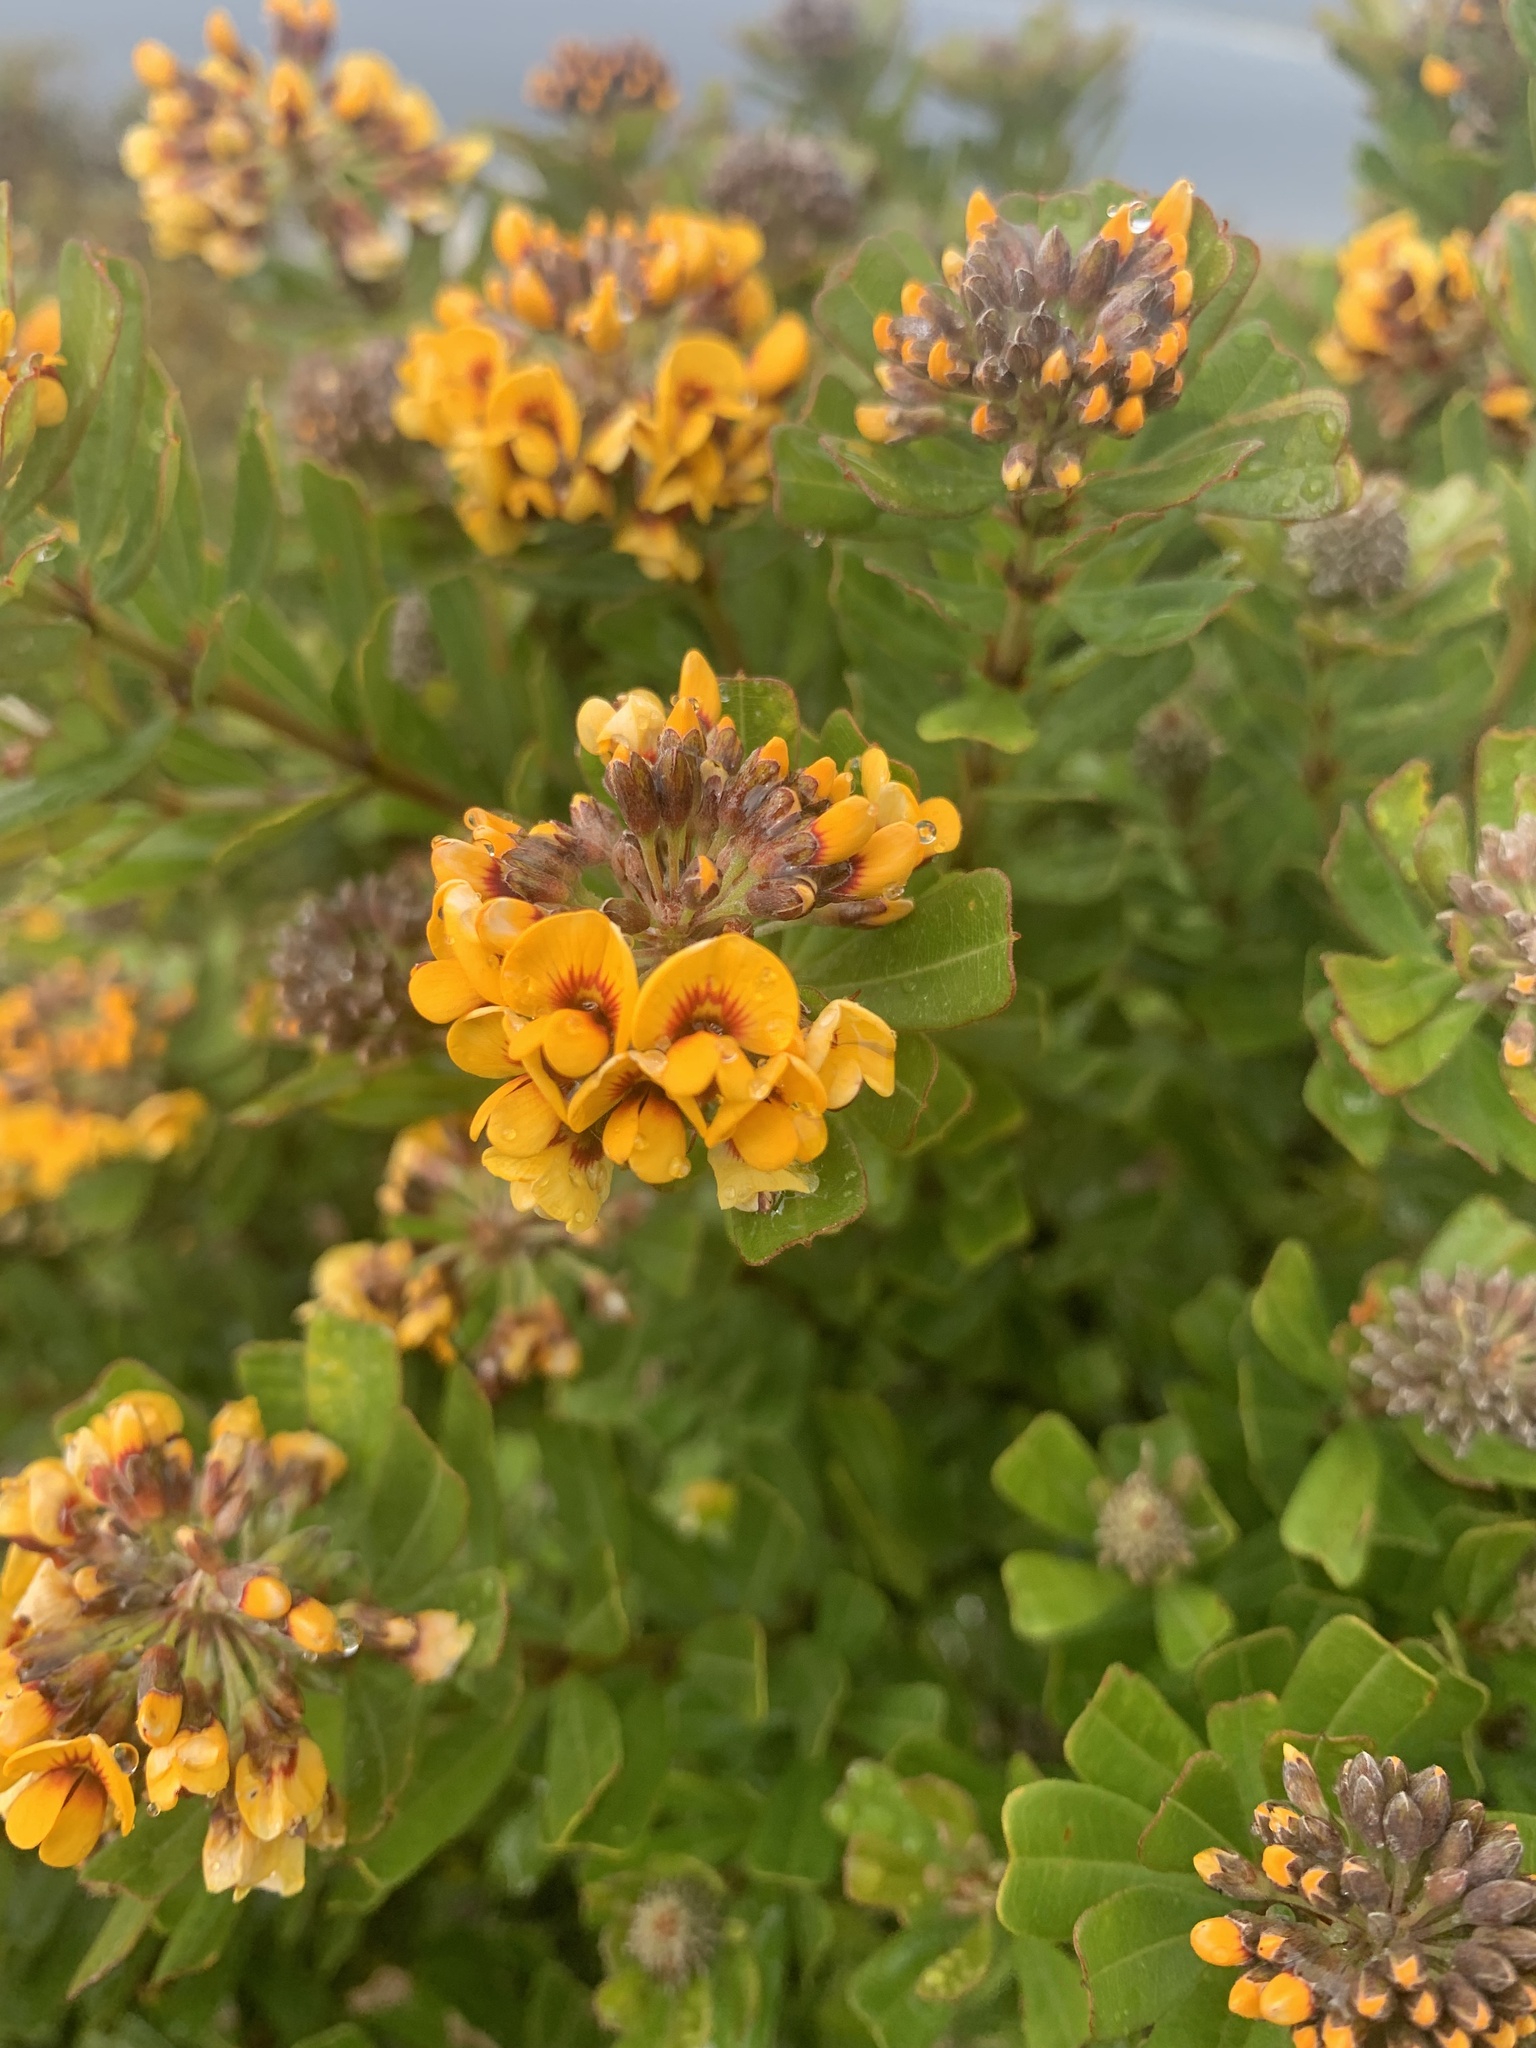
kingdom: Plantae
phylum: Tracheophyta
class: Magnoliopsida
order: Fabales
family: Fabaceae
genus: Gastrolobium
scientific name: Gastrolobium bilobum
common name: Heart-leaf poisonbush
